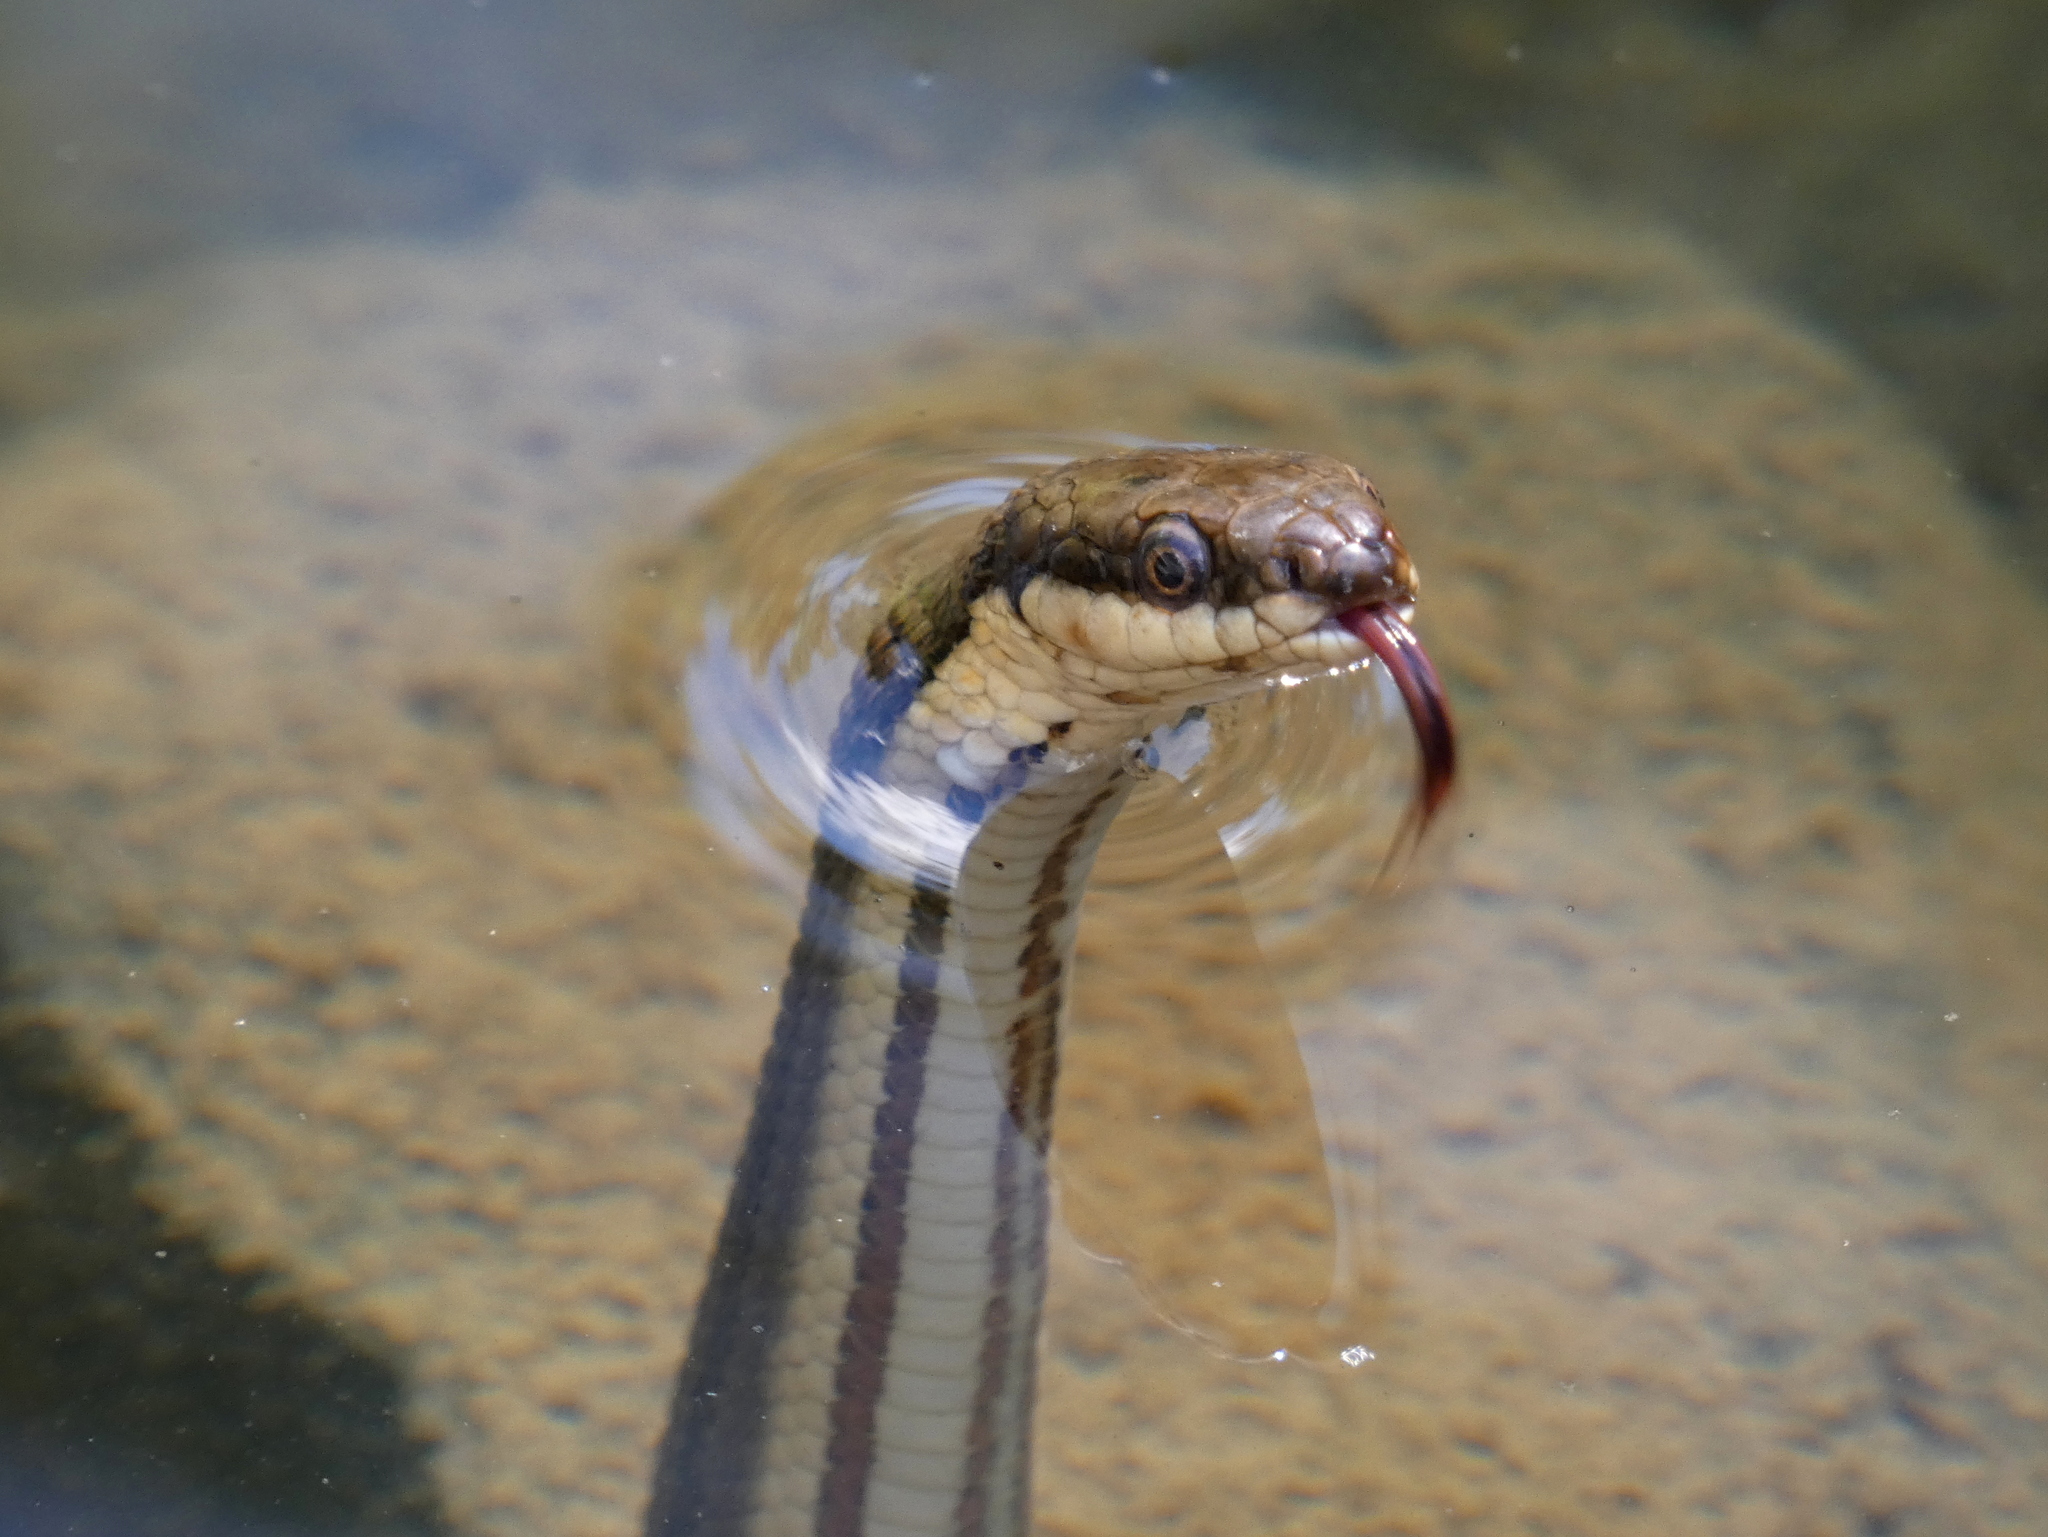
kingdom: Animalia
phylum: Chordata
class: Squamata
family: Colubridae
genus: Regina
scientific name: Regina septemvittata
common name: Queen snake
